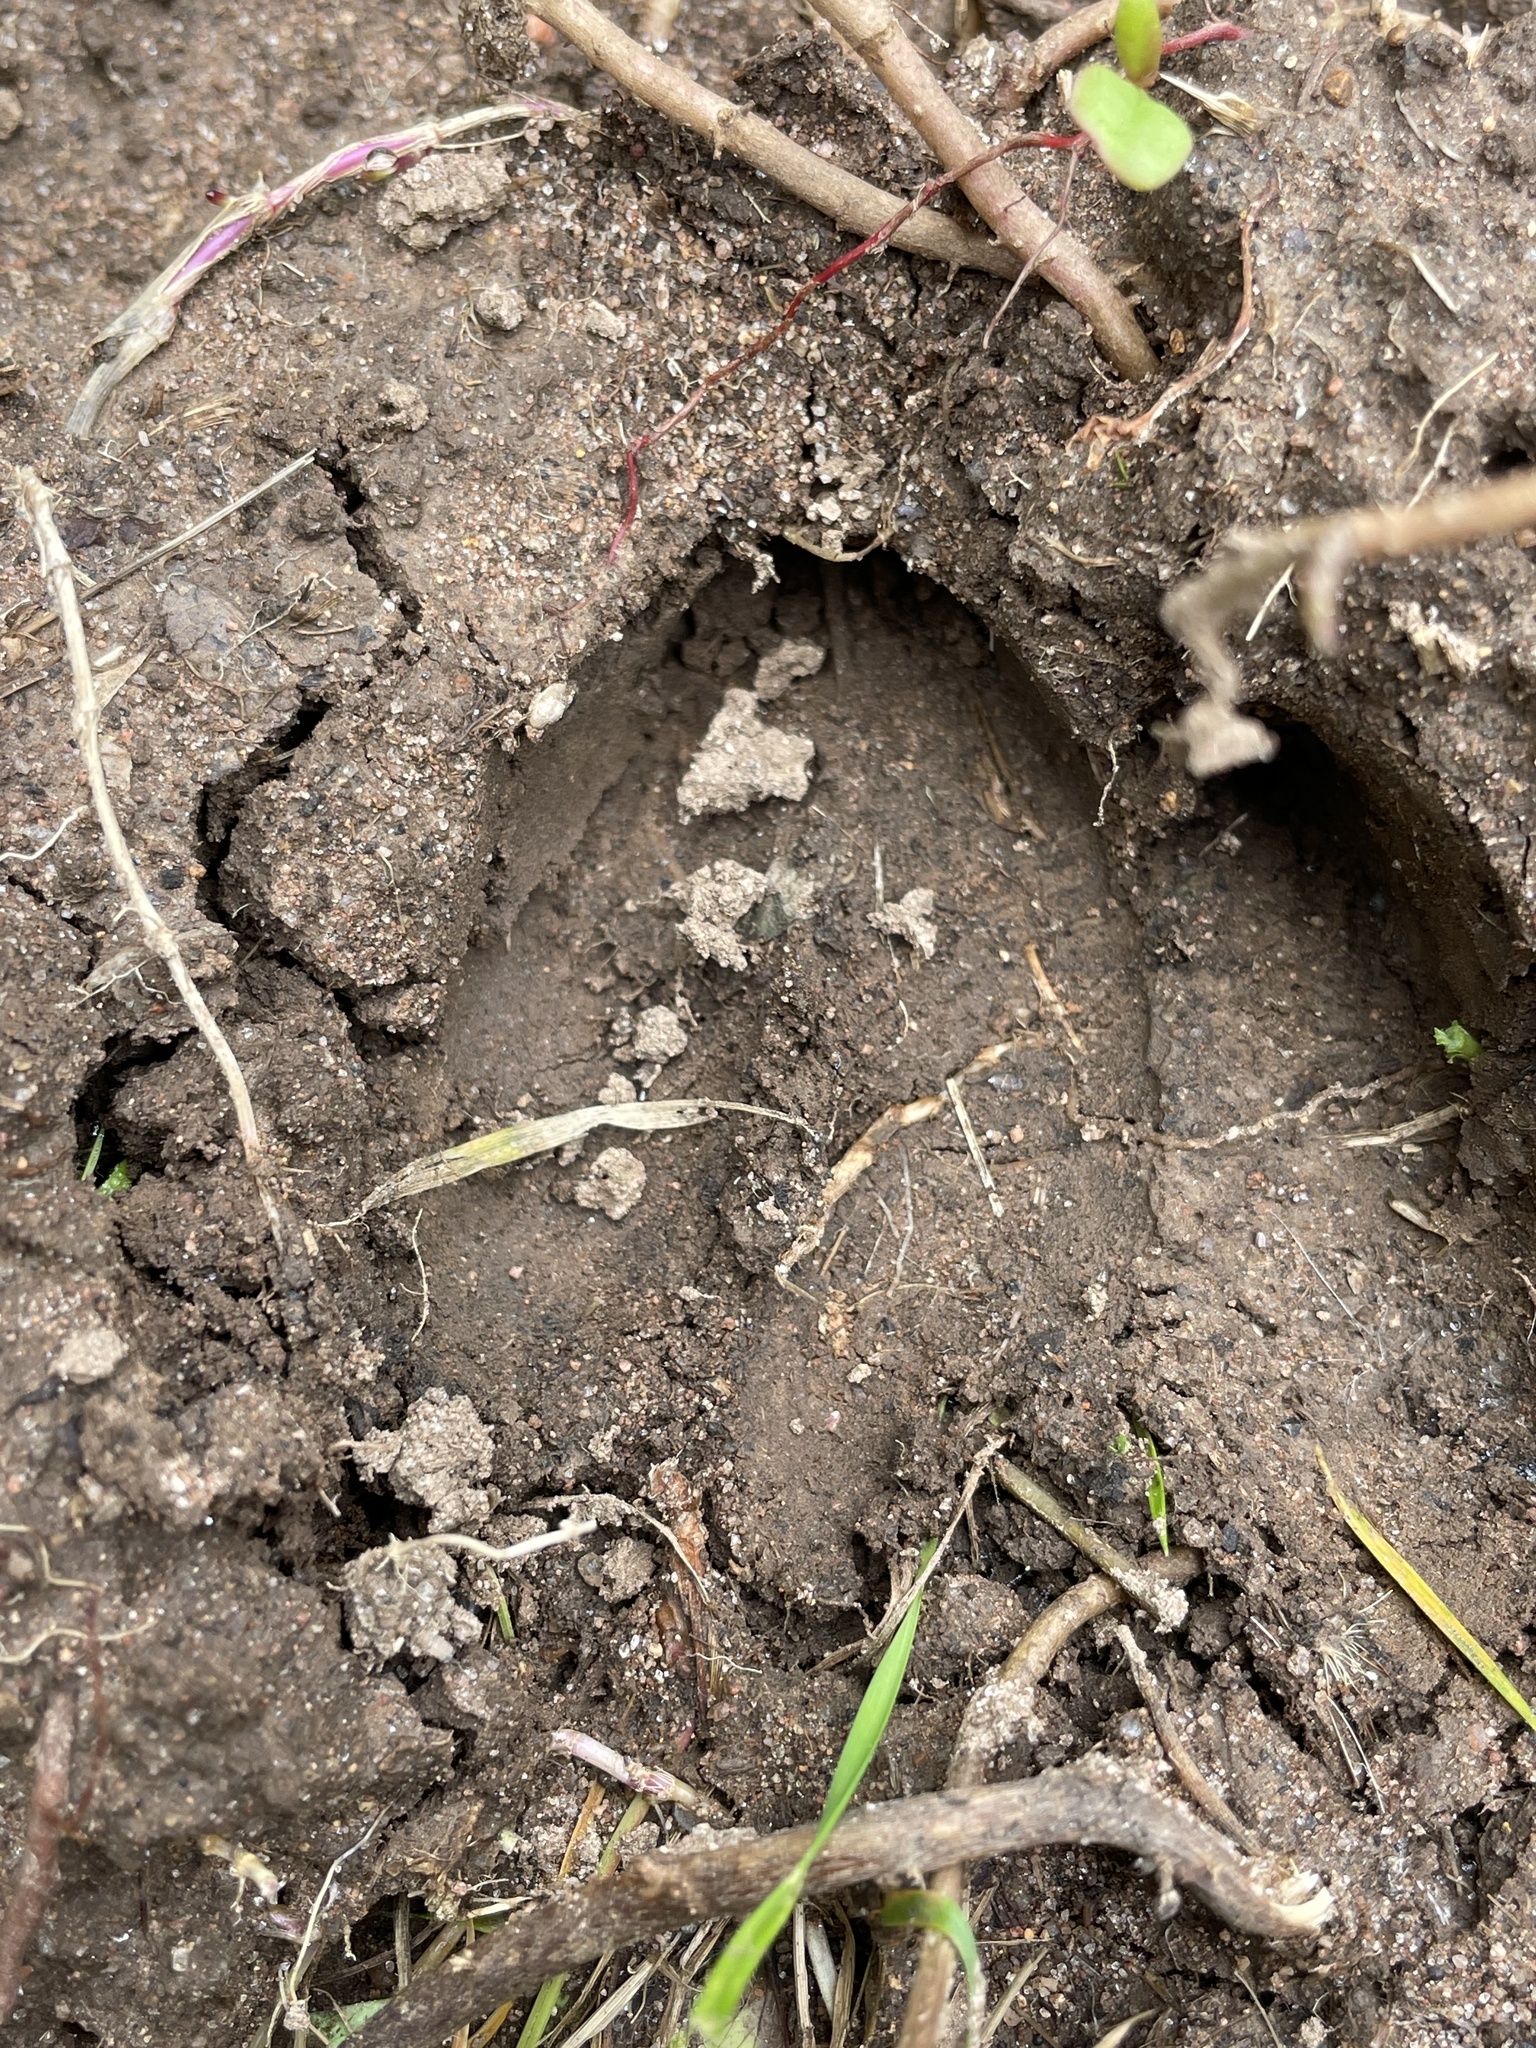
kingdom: Animalia
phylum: Chordata
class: Mammalia
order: Artiodactyla
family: Cervidae
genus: Odocoileus
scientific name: Odocoileus virginianus
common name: White-tailed deer
